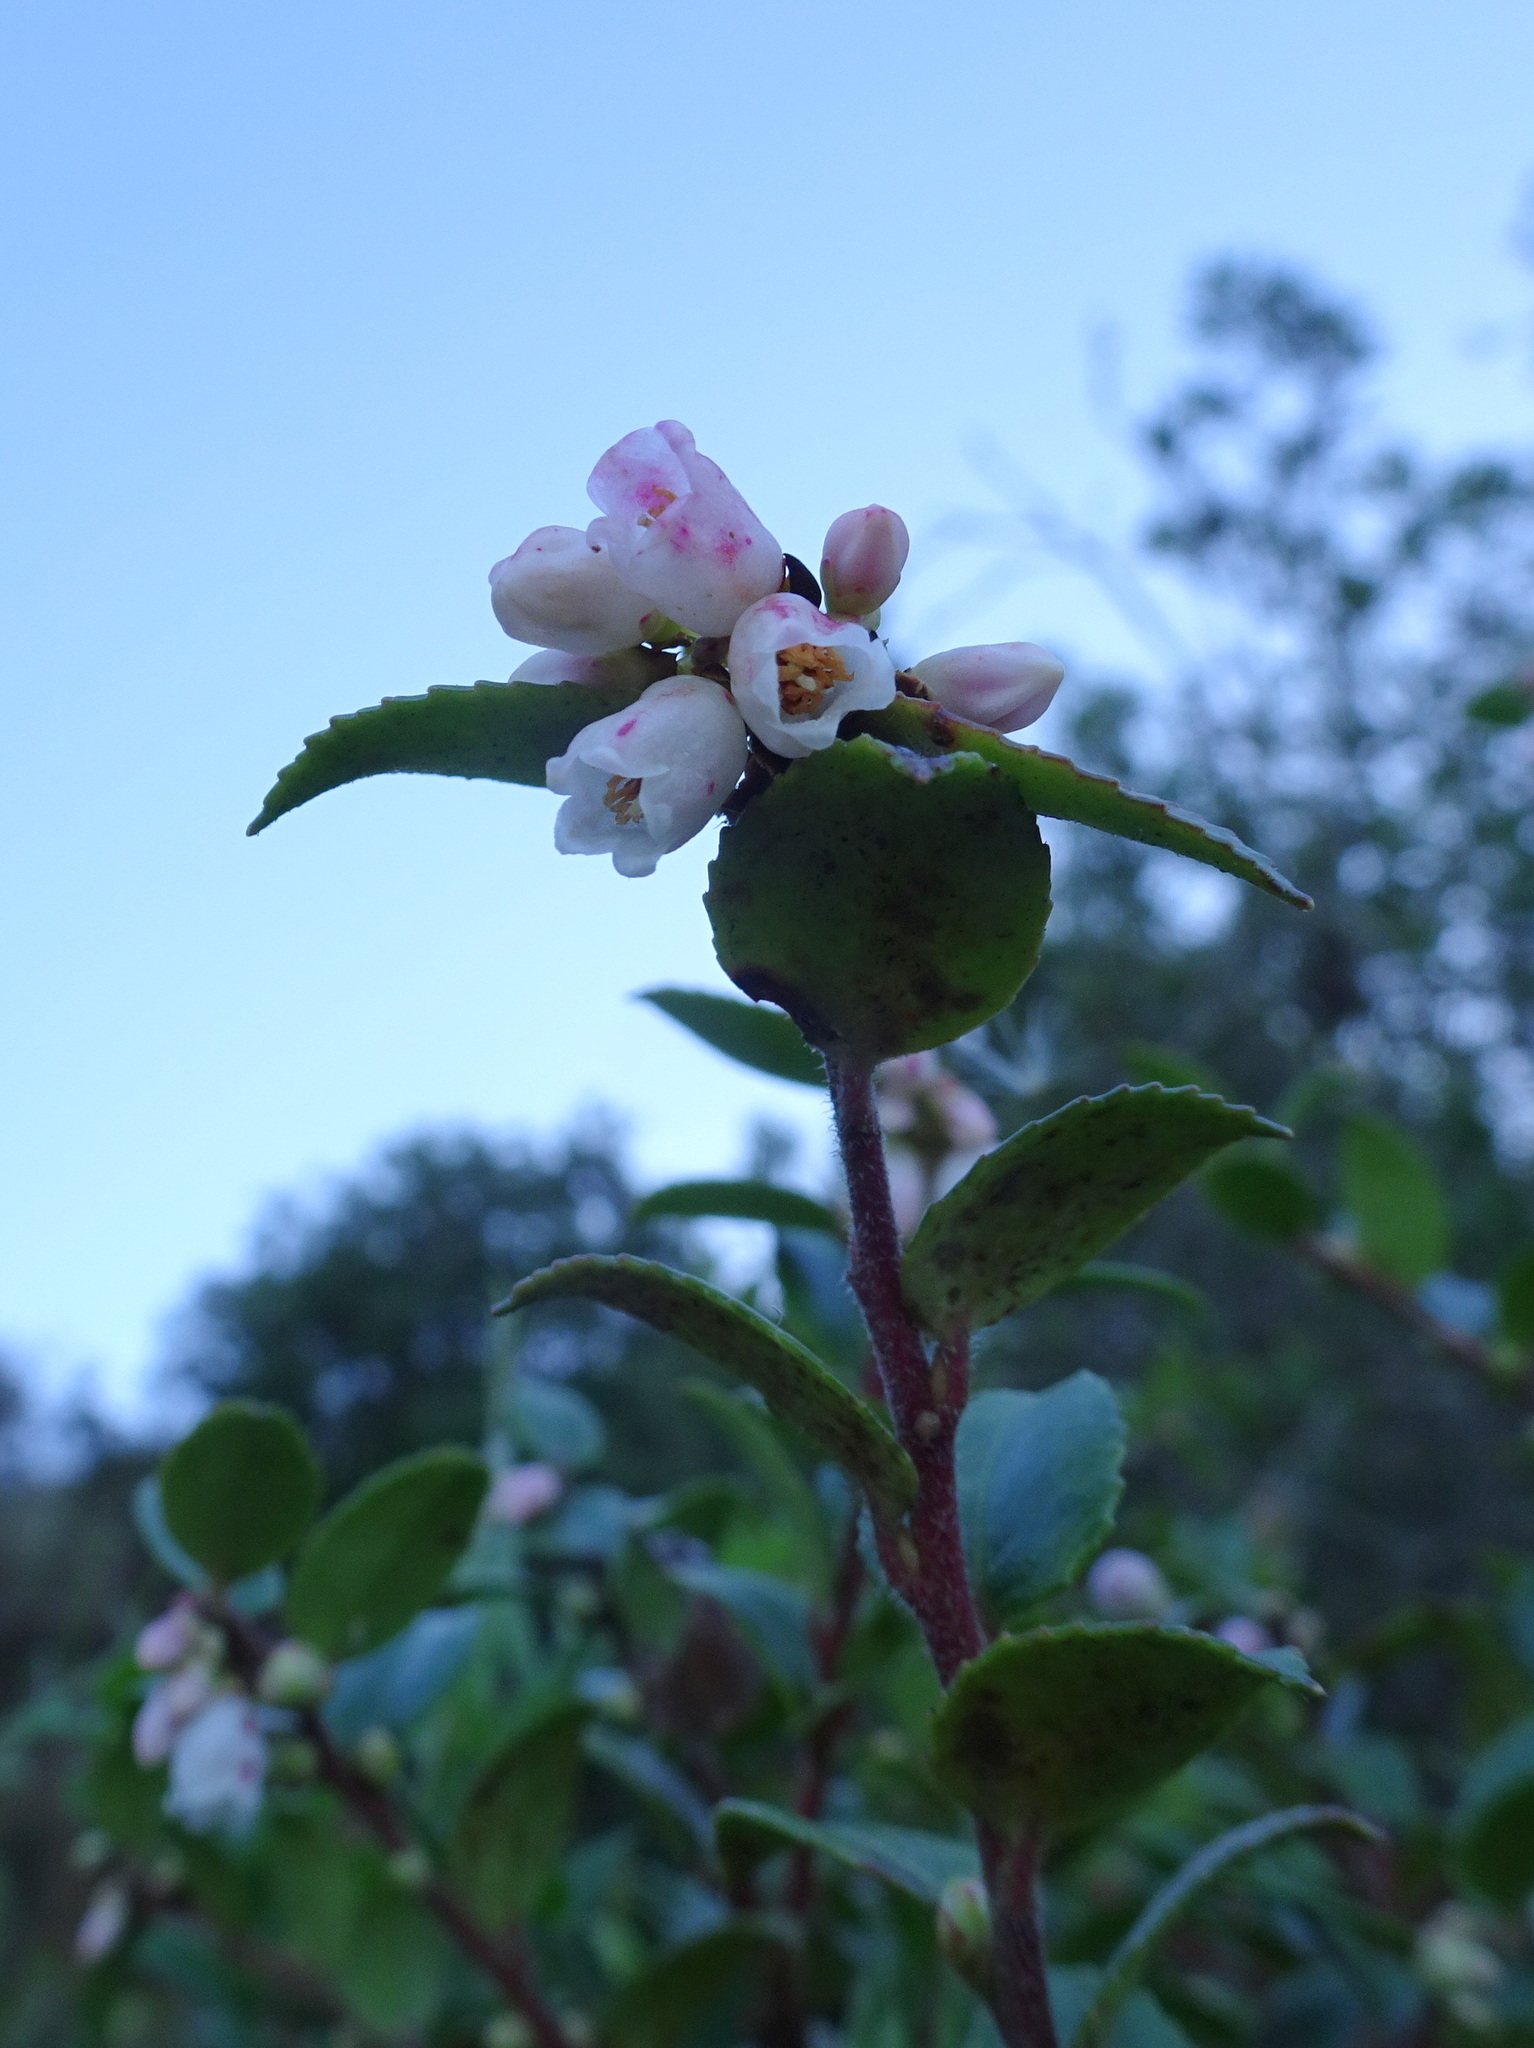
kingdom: Plantae
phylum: Tracheophyta
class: Magnoliopsida
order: Ericales
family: Ericaceae
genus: Vaccinium
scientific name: Vaccinium ovatum
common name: California-huckleberry
